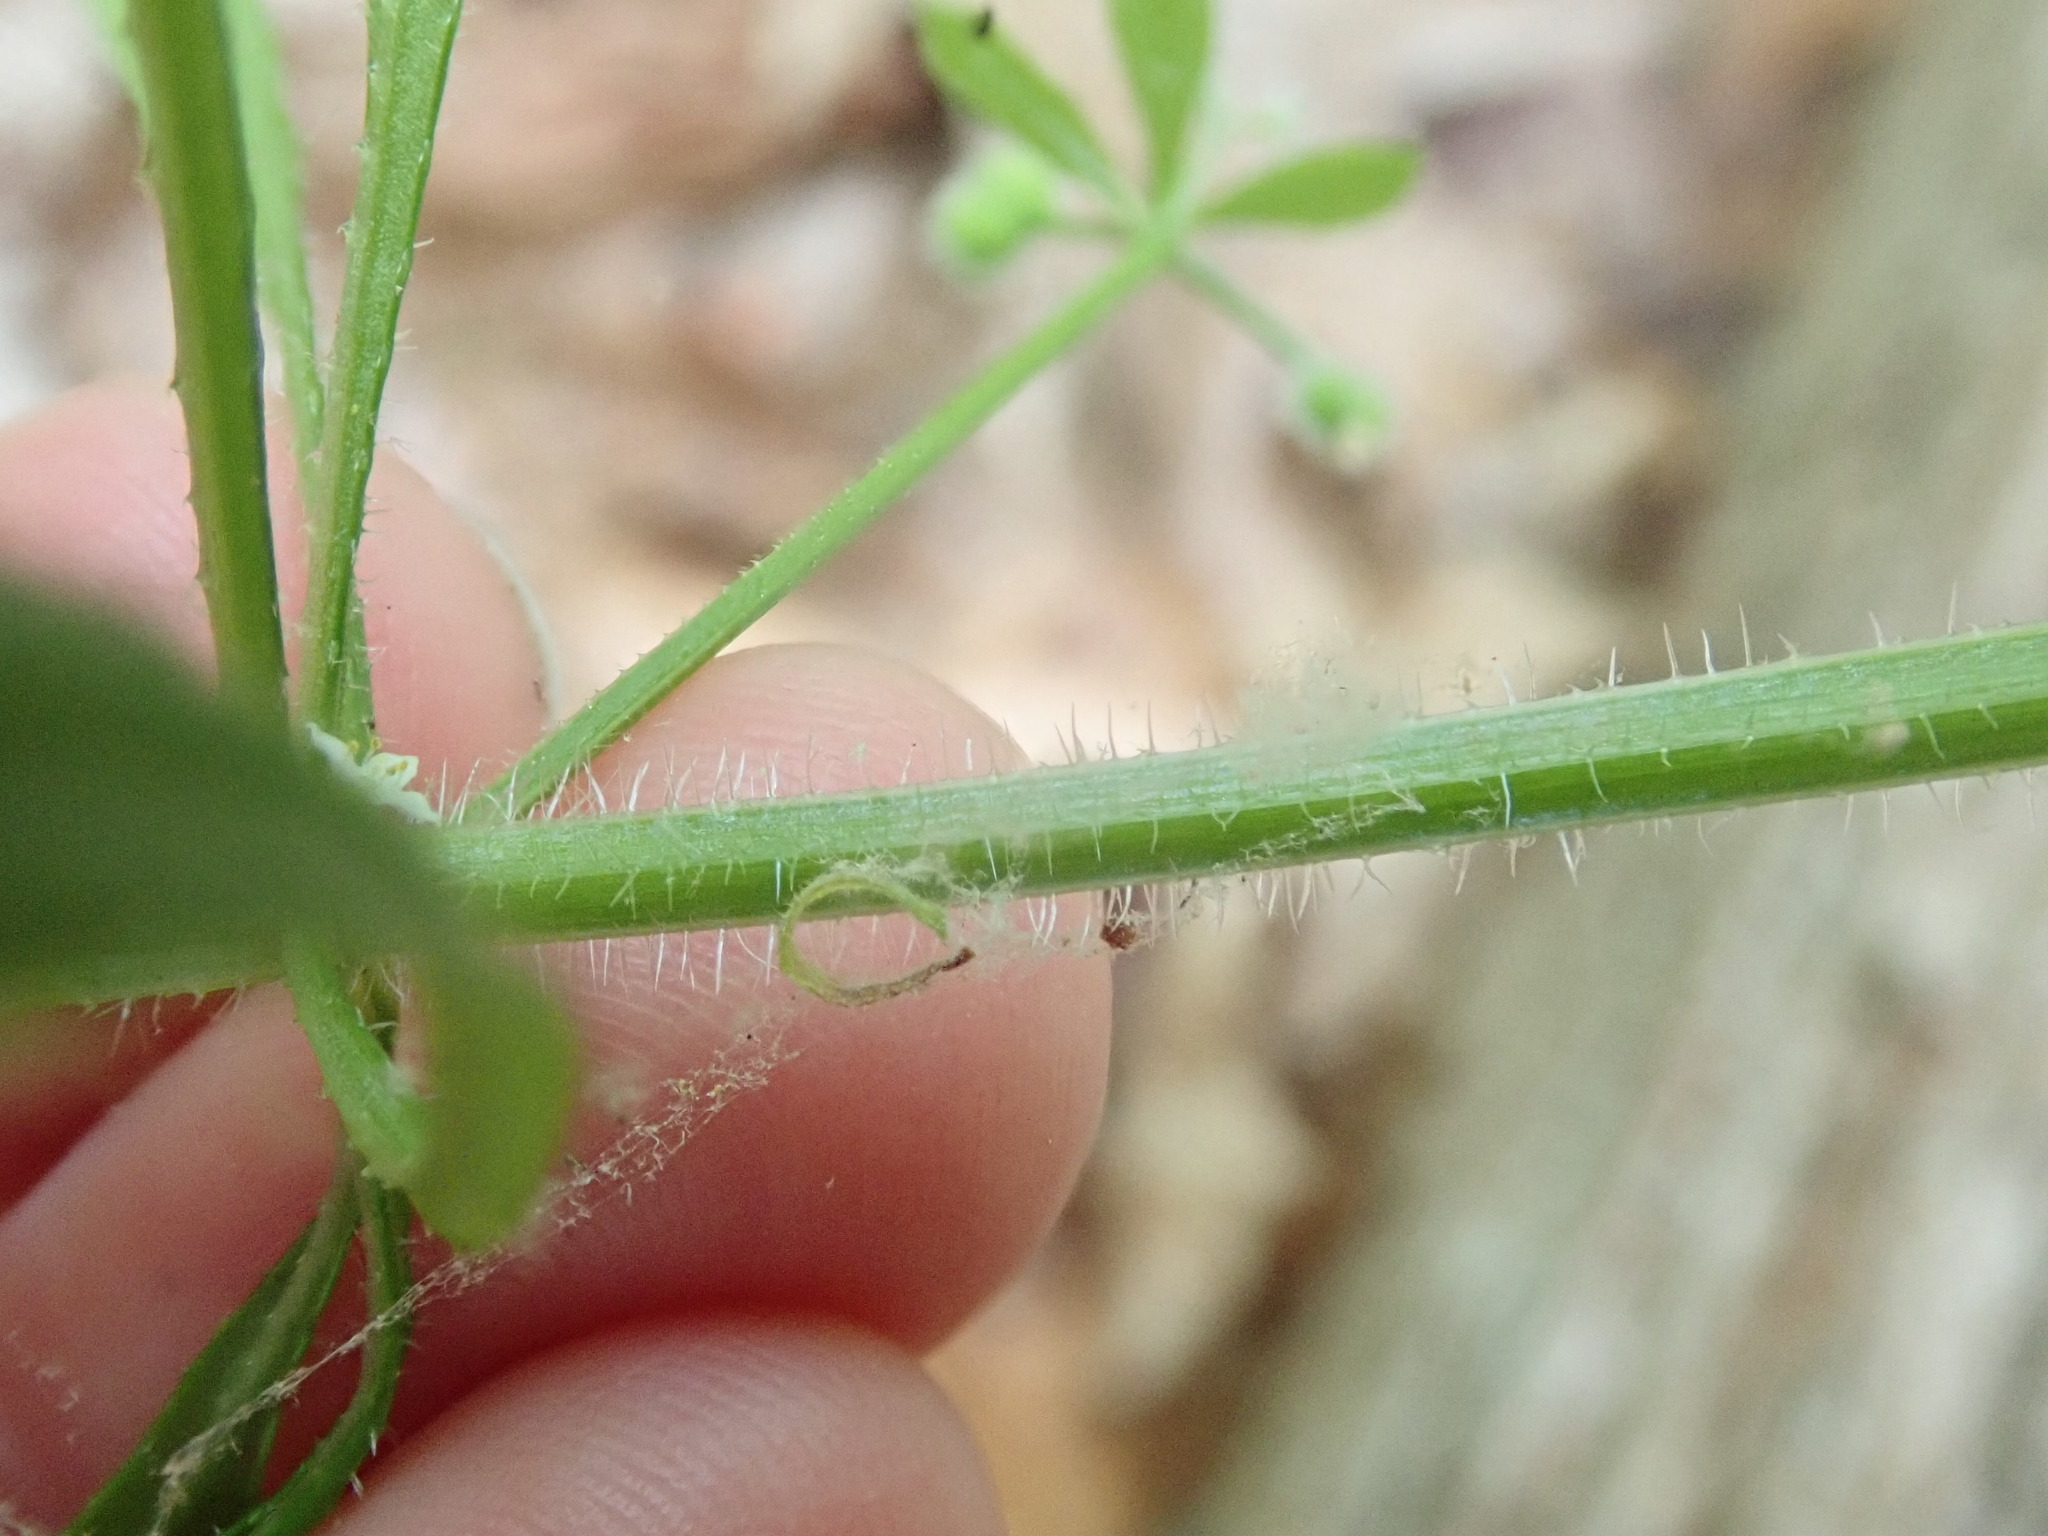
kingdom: Plantae
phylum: Tracheophyta
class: Magnoliopsida
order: Gentianales
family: Rubiaceae
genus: Galium
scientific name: Galium aparine
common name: Cleavers
